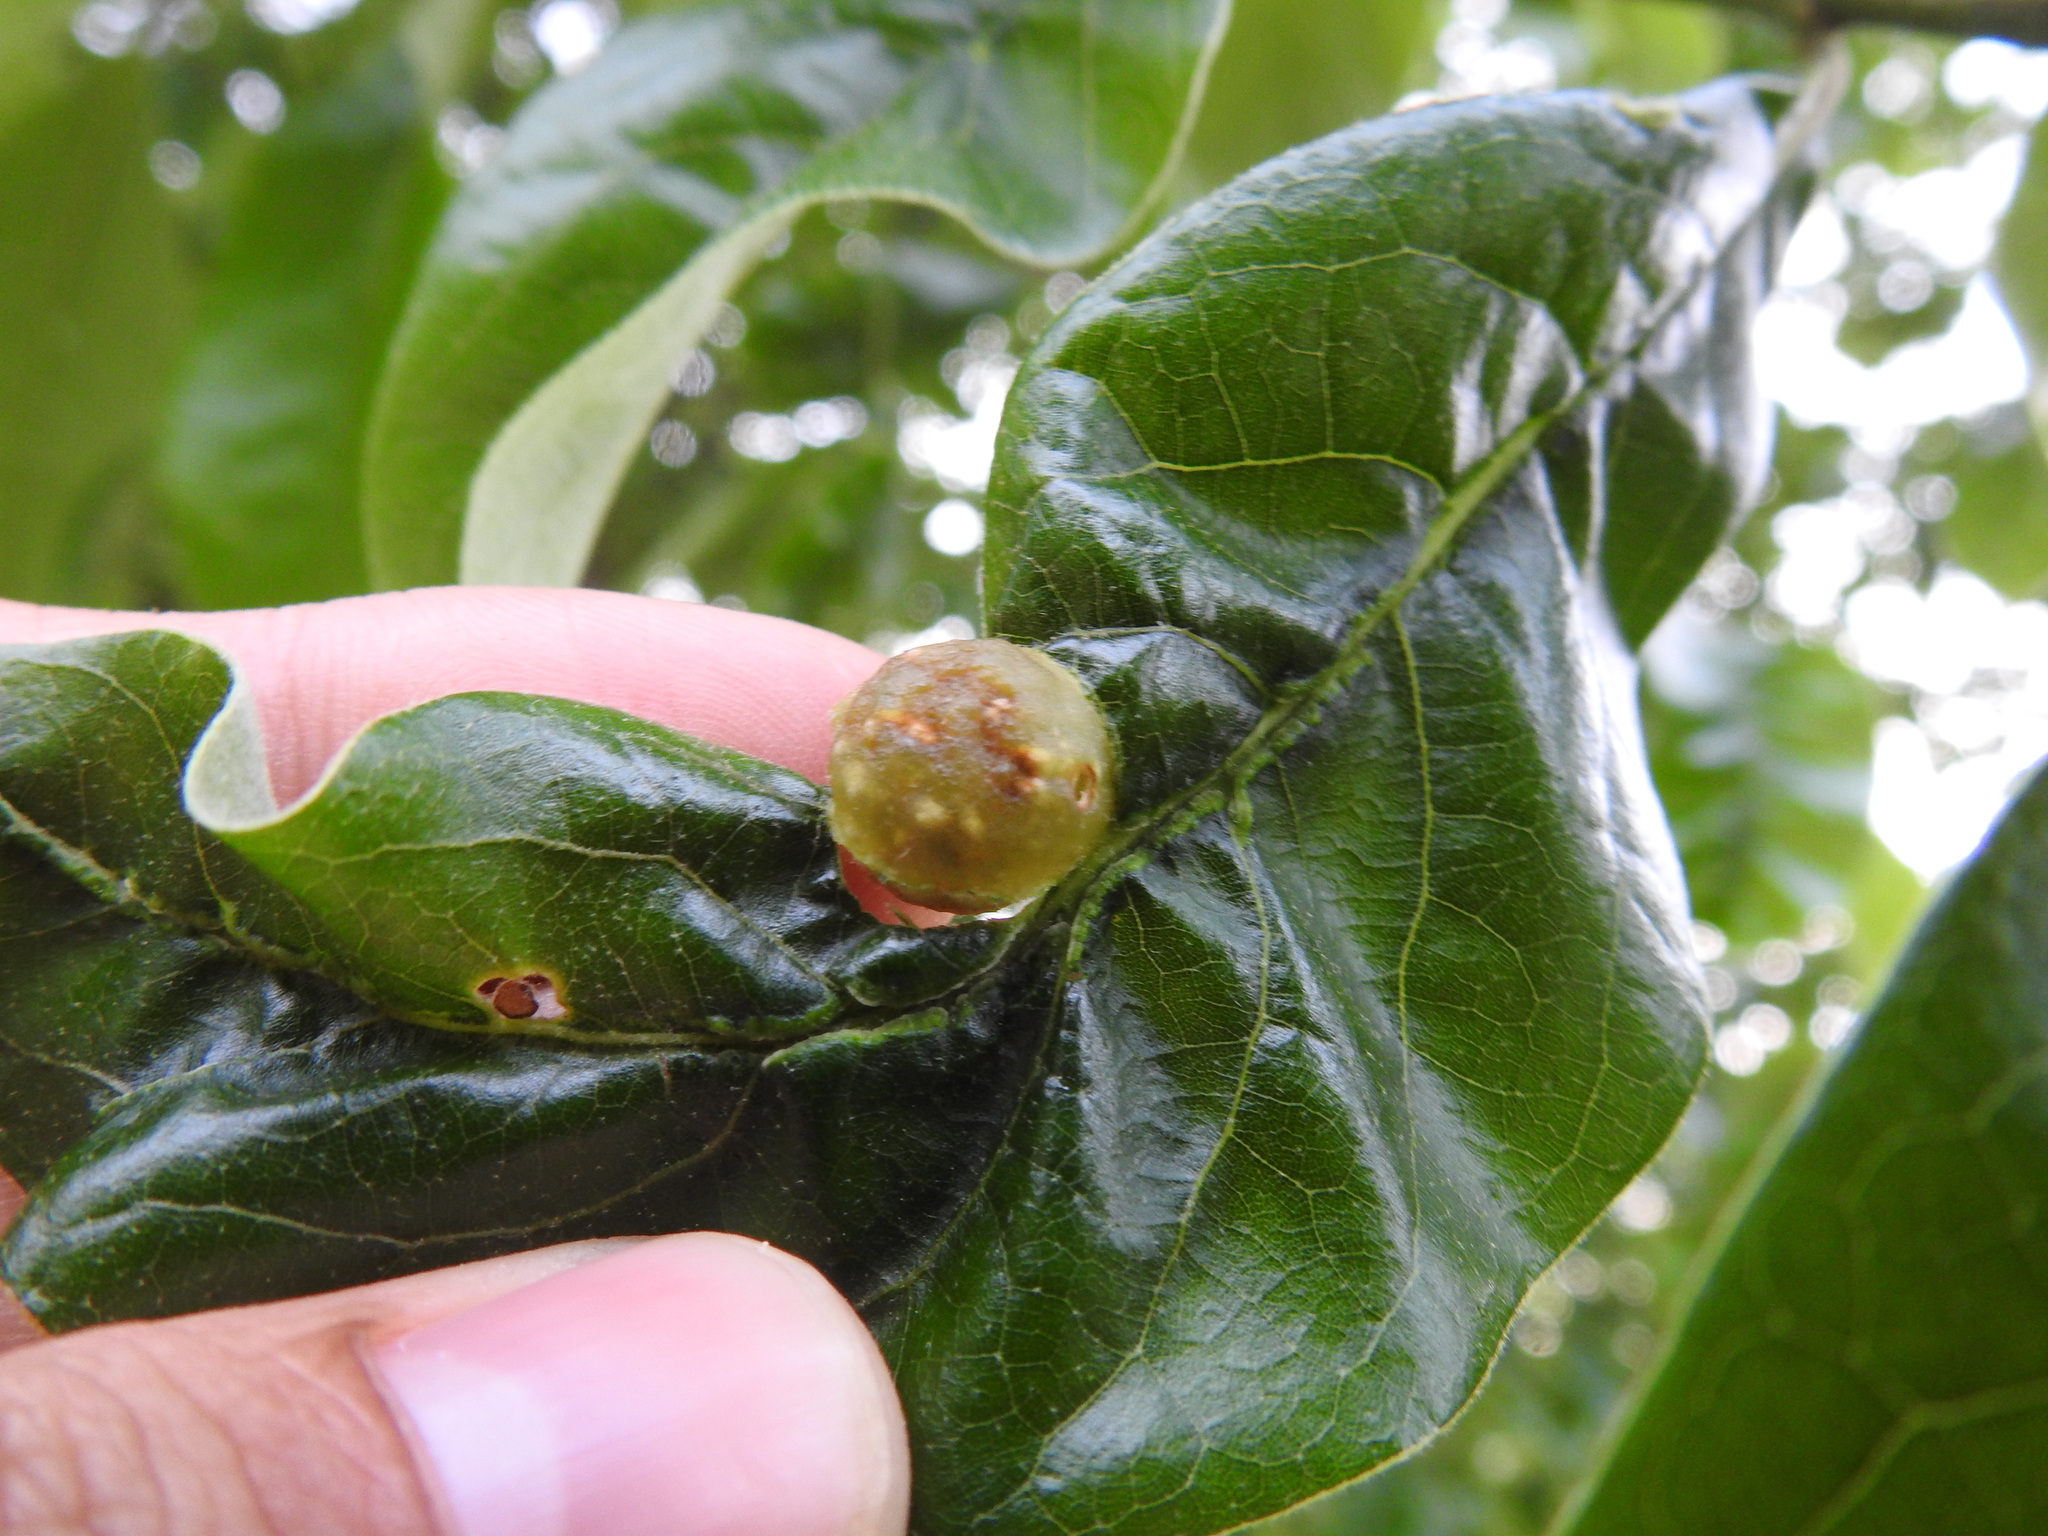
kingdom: Animalia
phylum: Arthropoda
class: Insecta
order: Hymenoptera
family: Cynipidae
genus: Dryocosmus
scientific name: Dryocosmus quercuspalustris
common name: Succulent oak gall wasp
